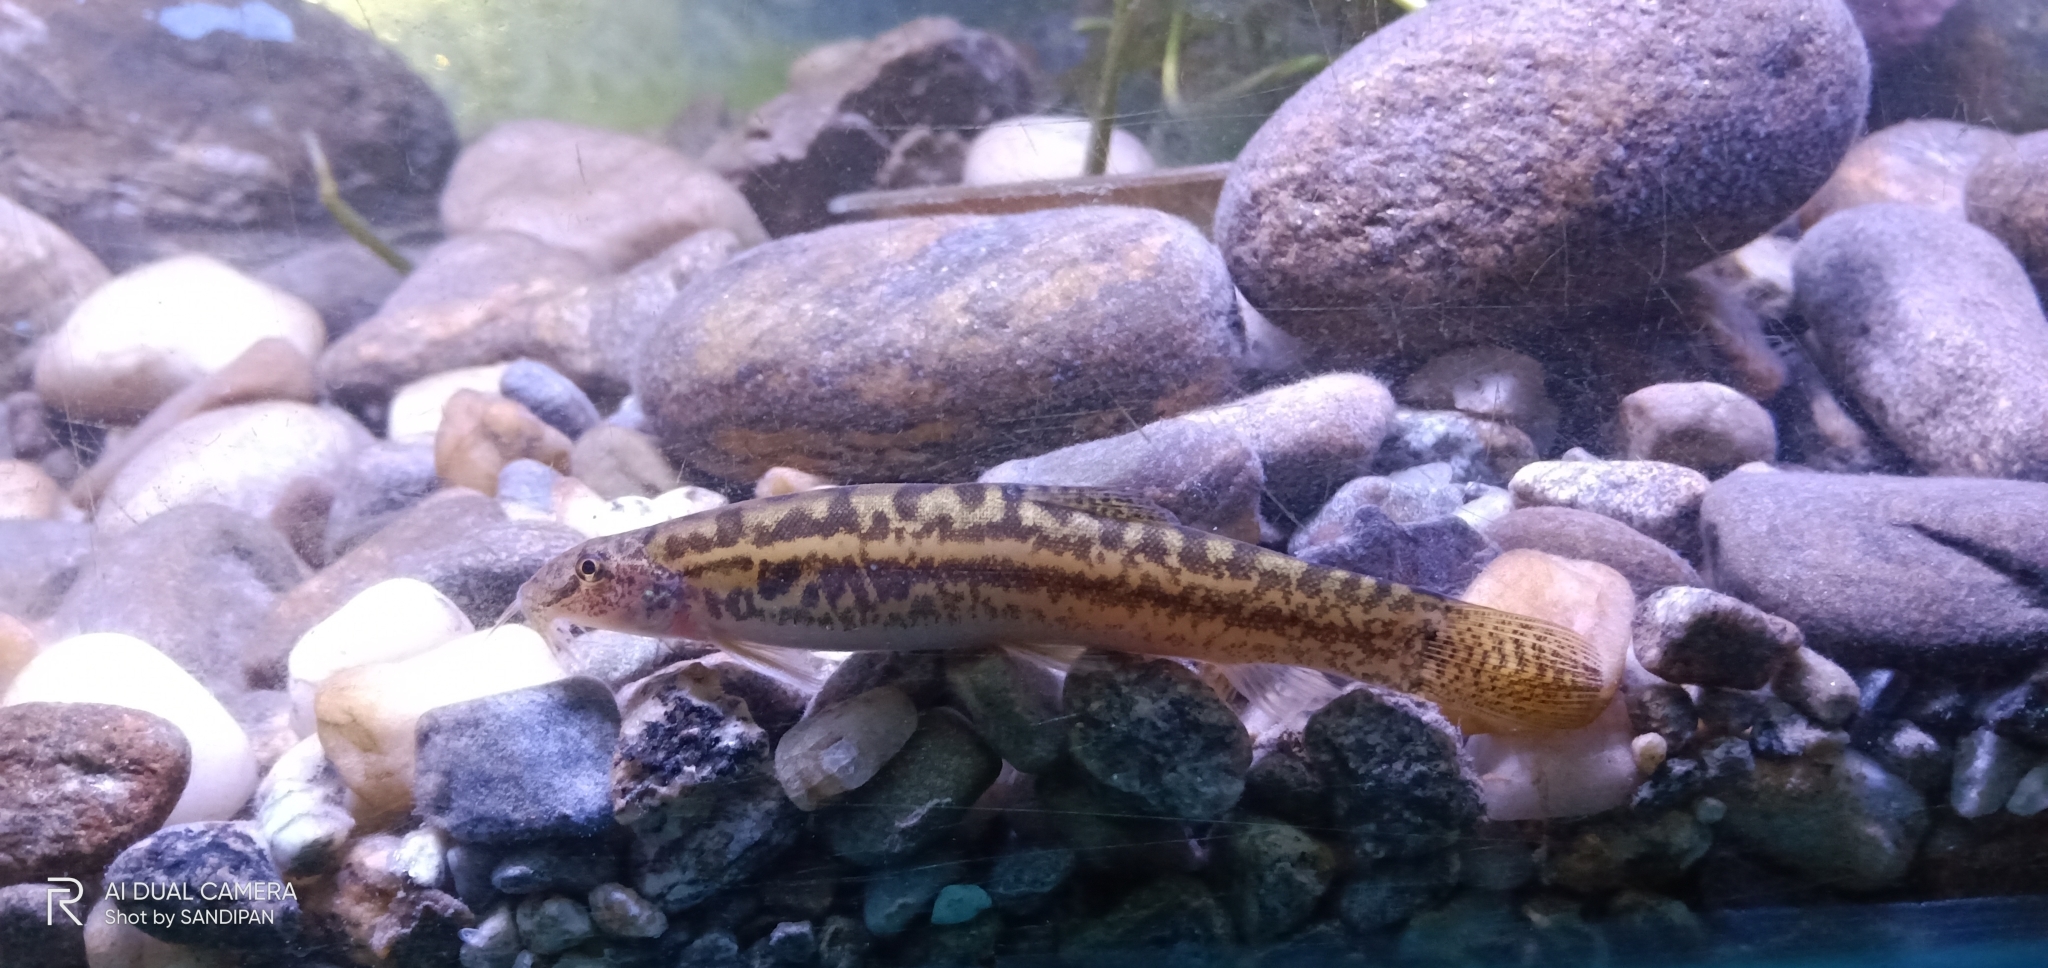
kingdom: Animalia
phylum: Chordata
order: Cypriniformes
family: Cobitidae
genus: Lepidocephalichthys
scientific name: Lepidocephalichthys guntea
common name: Guntea loach
